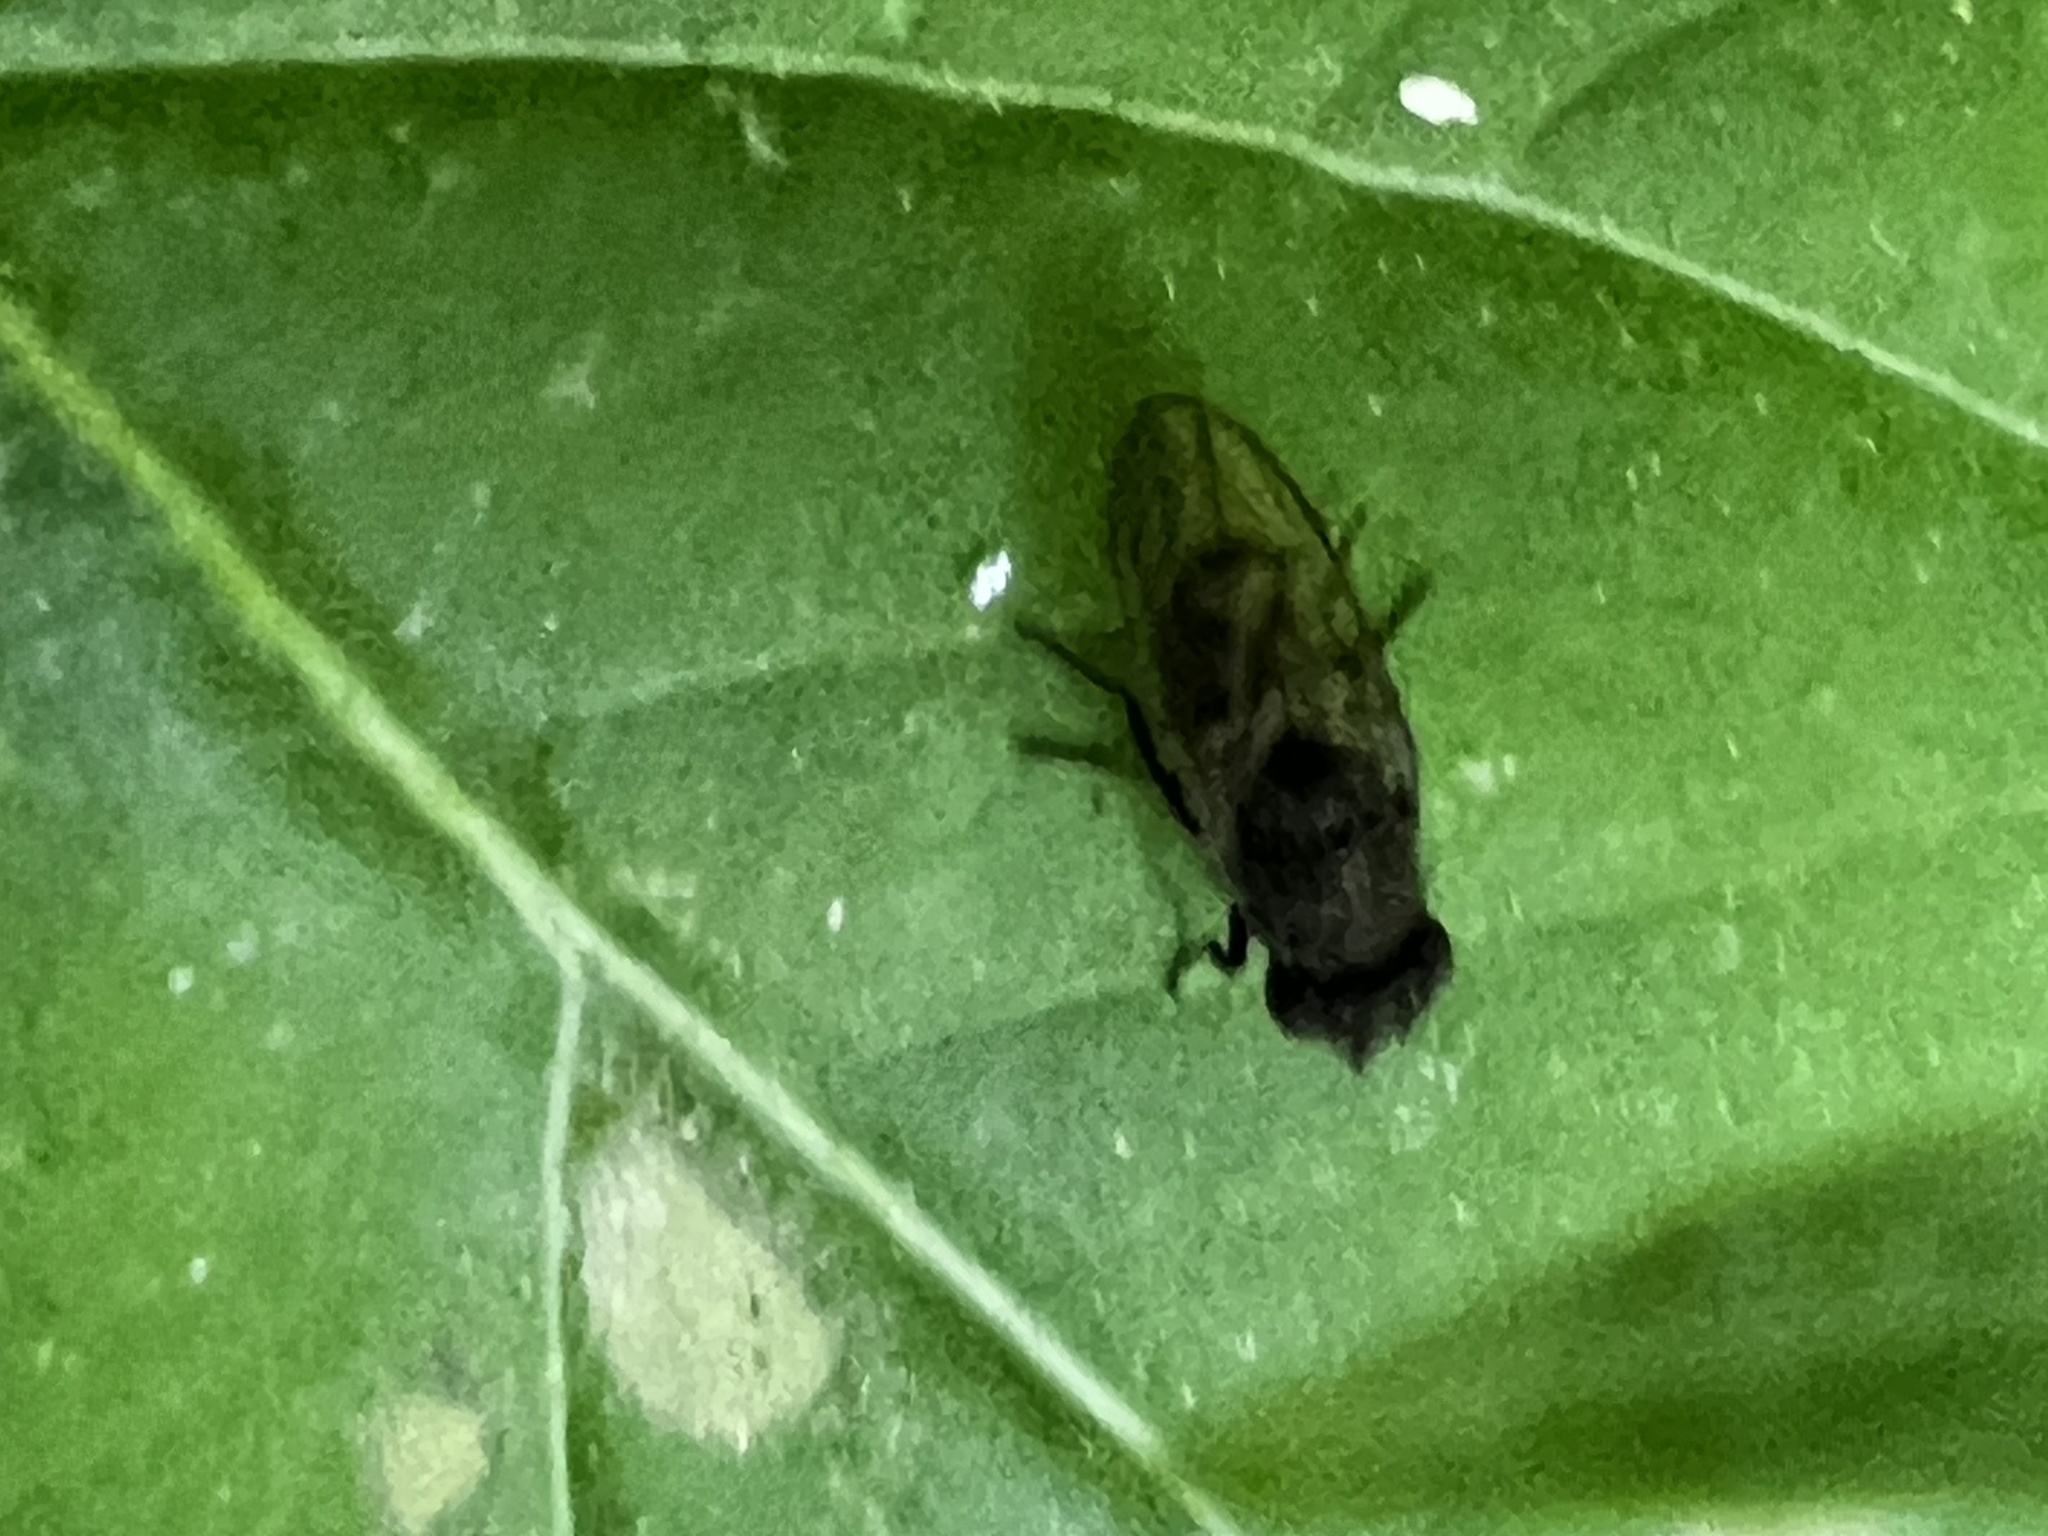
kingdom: Animalia
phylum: Arthropoda
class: Insecta
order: Diptera
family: Ephydridae
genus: Paralimna
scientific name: Paralimna punctipennis
